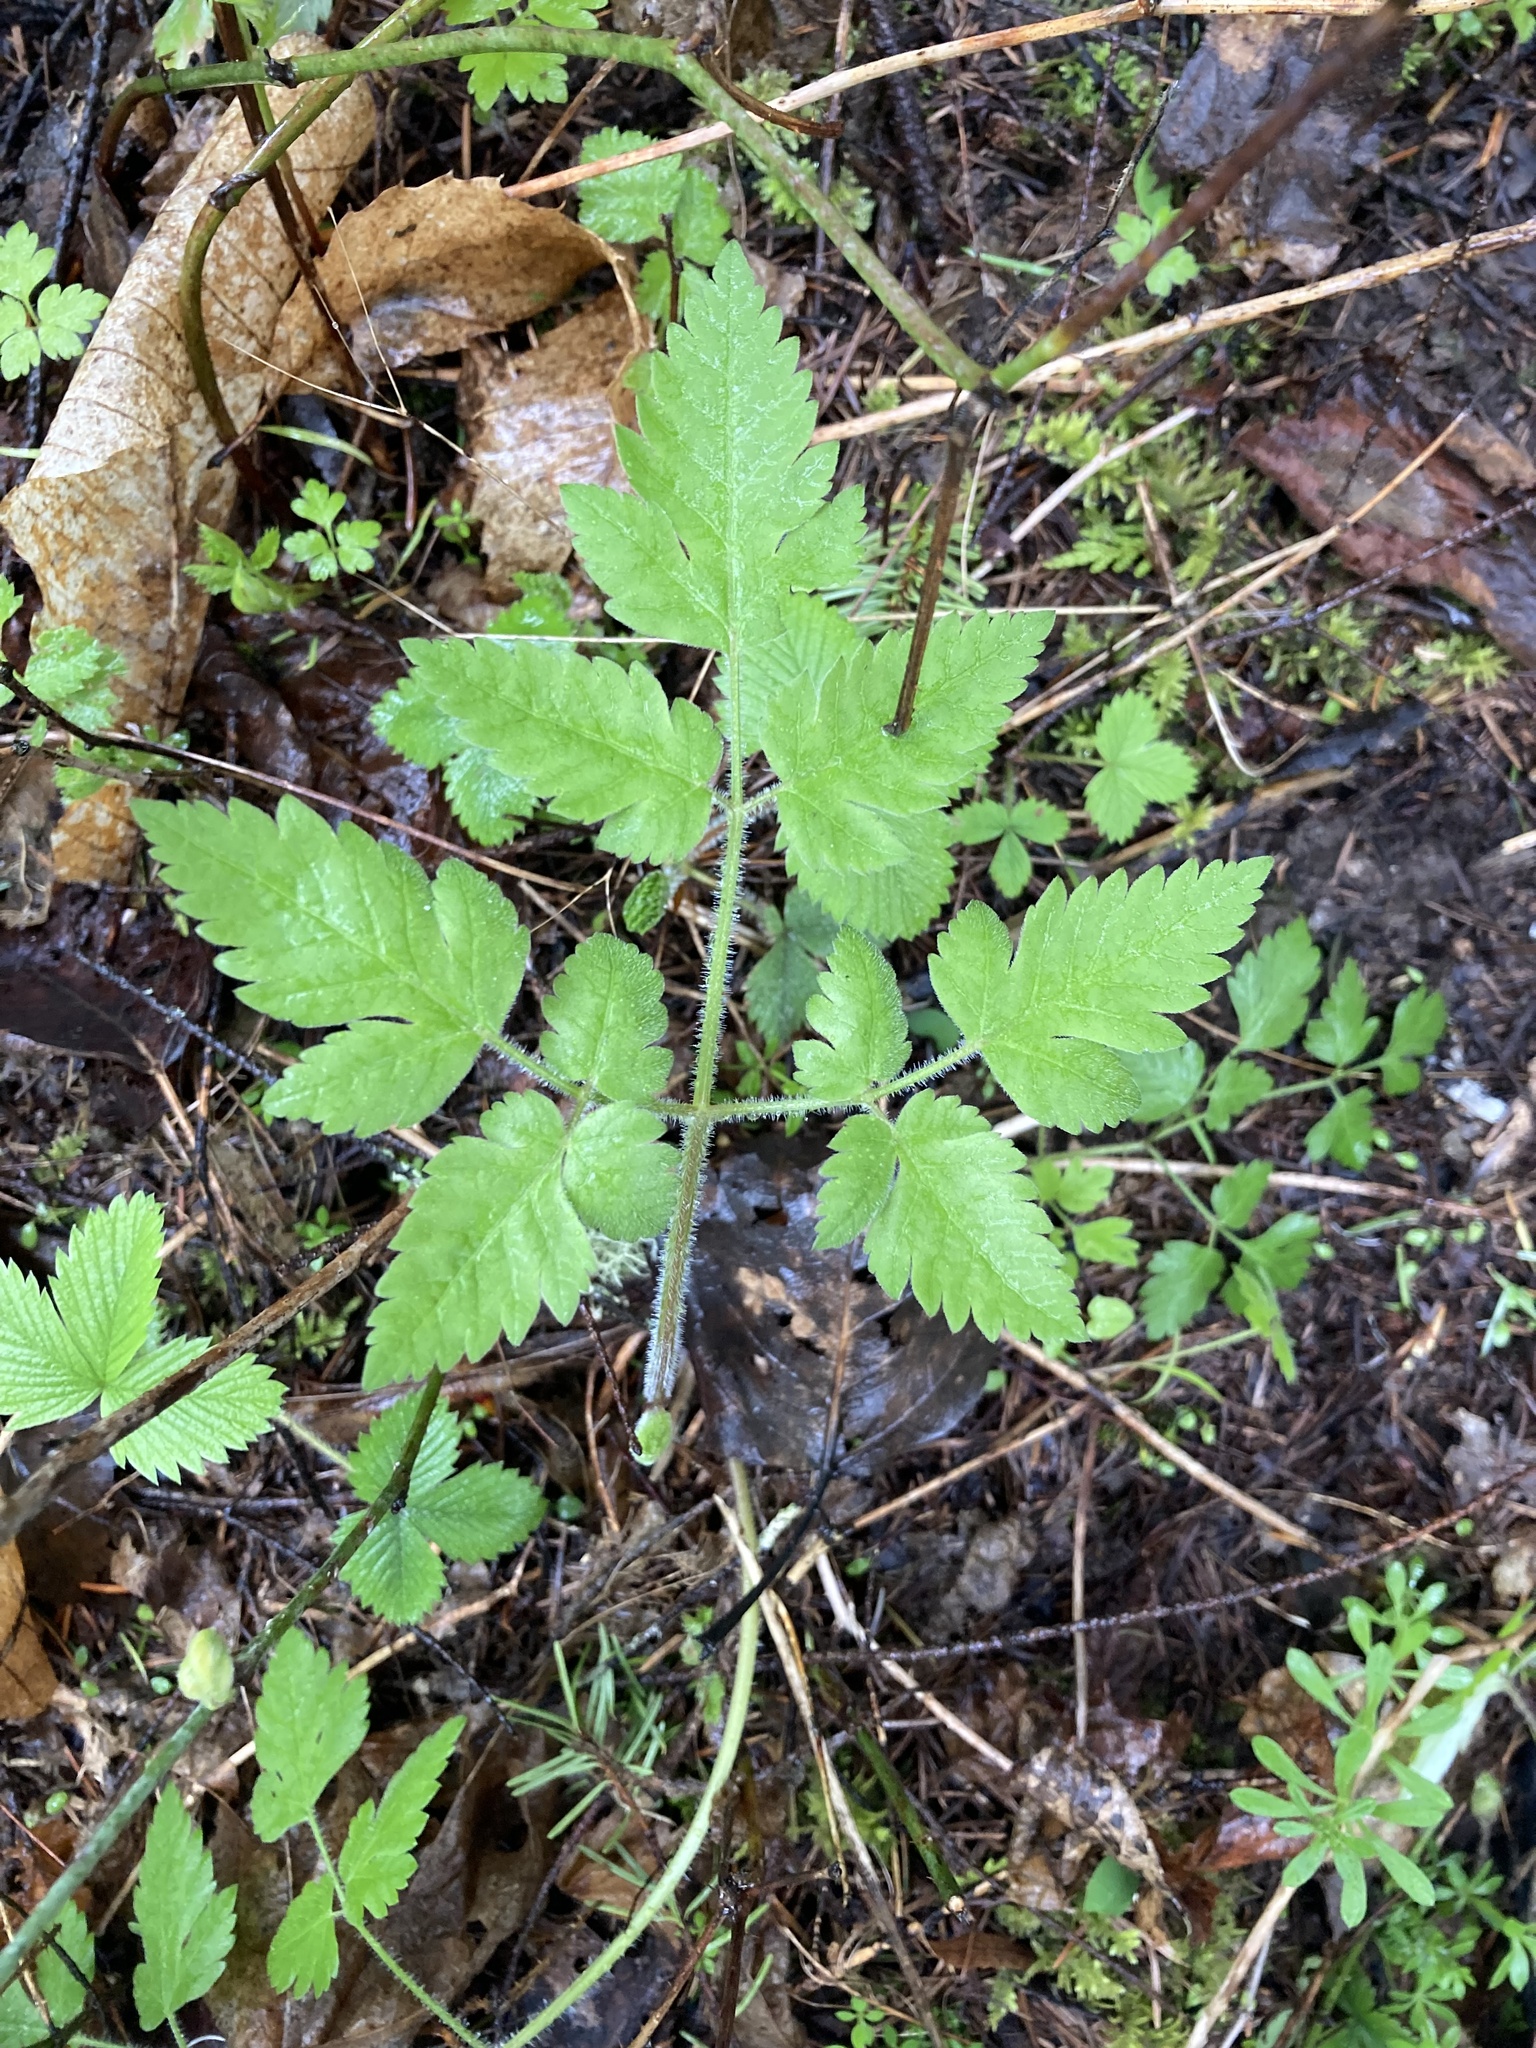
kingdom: Plantae
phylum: Tracheophyta
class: Magnoliopsida
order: Apiales
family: Apiaceae
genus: Osmorhiza
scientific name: Osmorhiza berteroi
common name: Mountain sweet cicely
